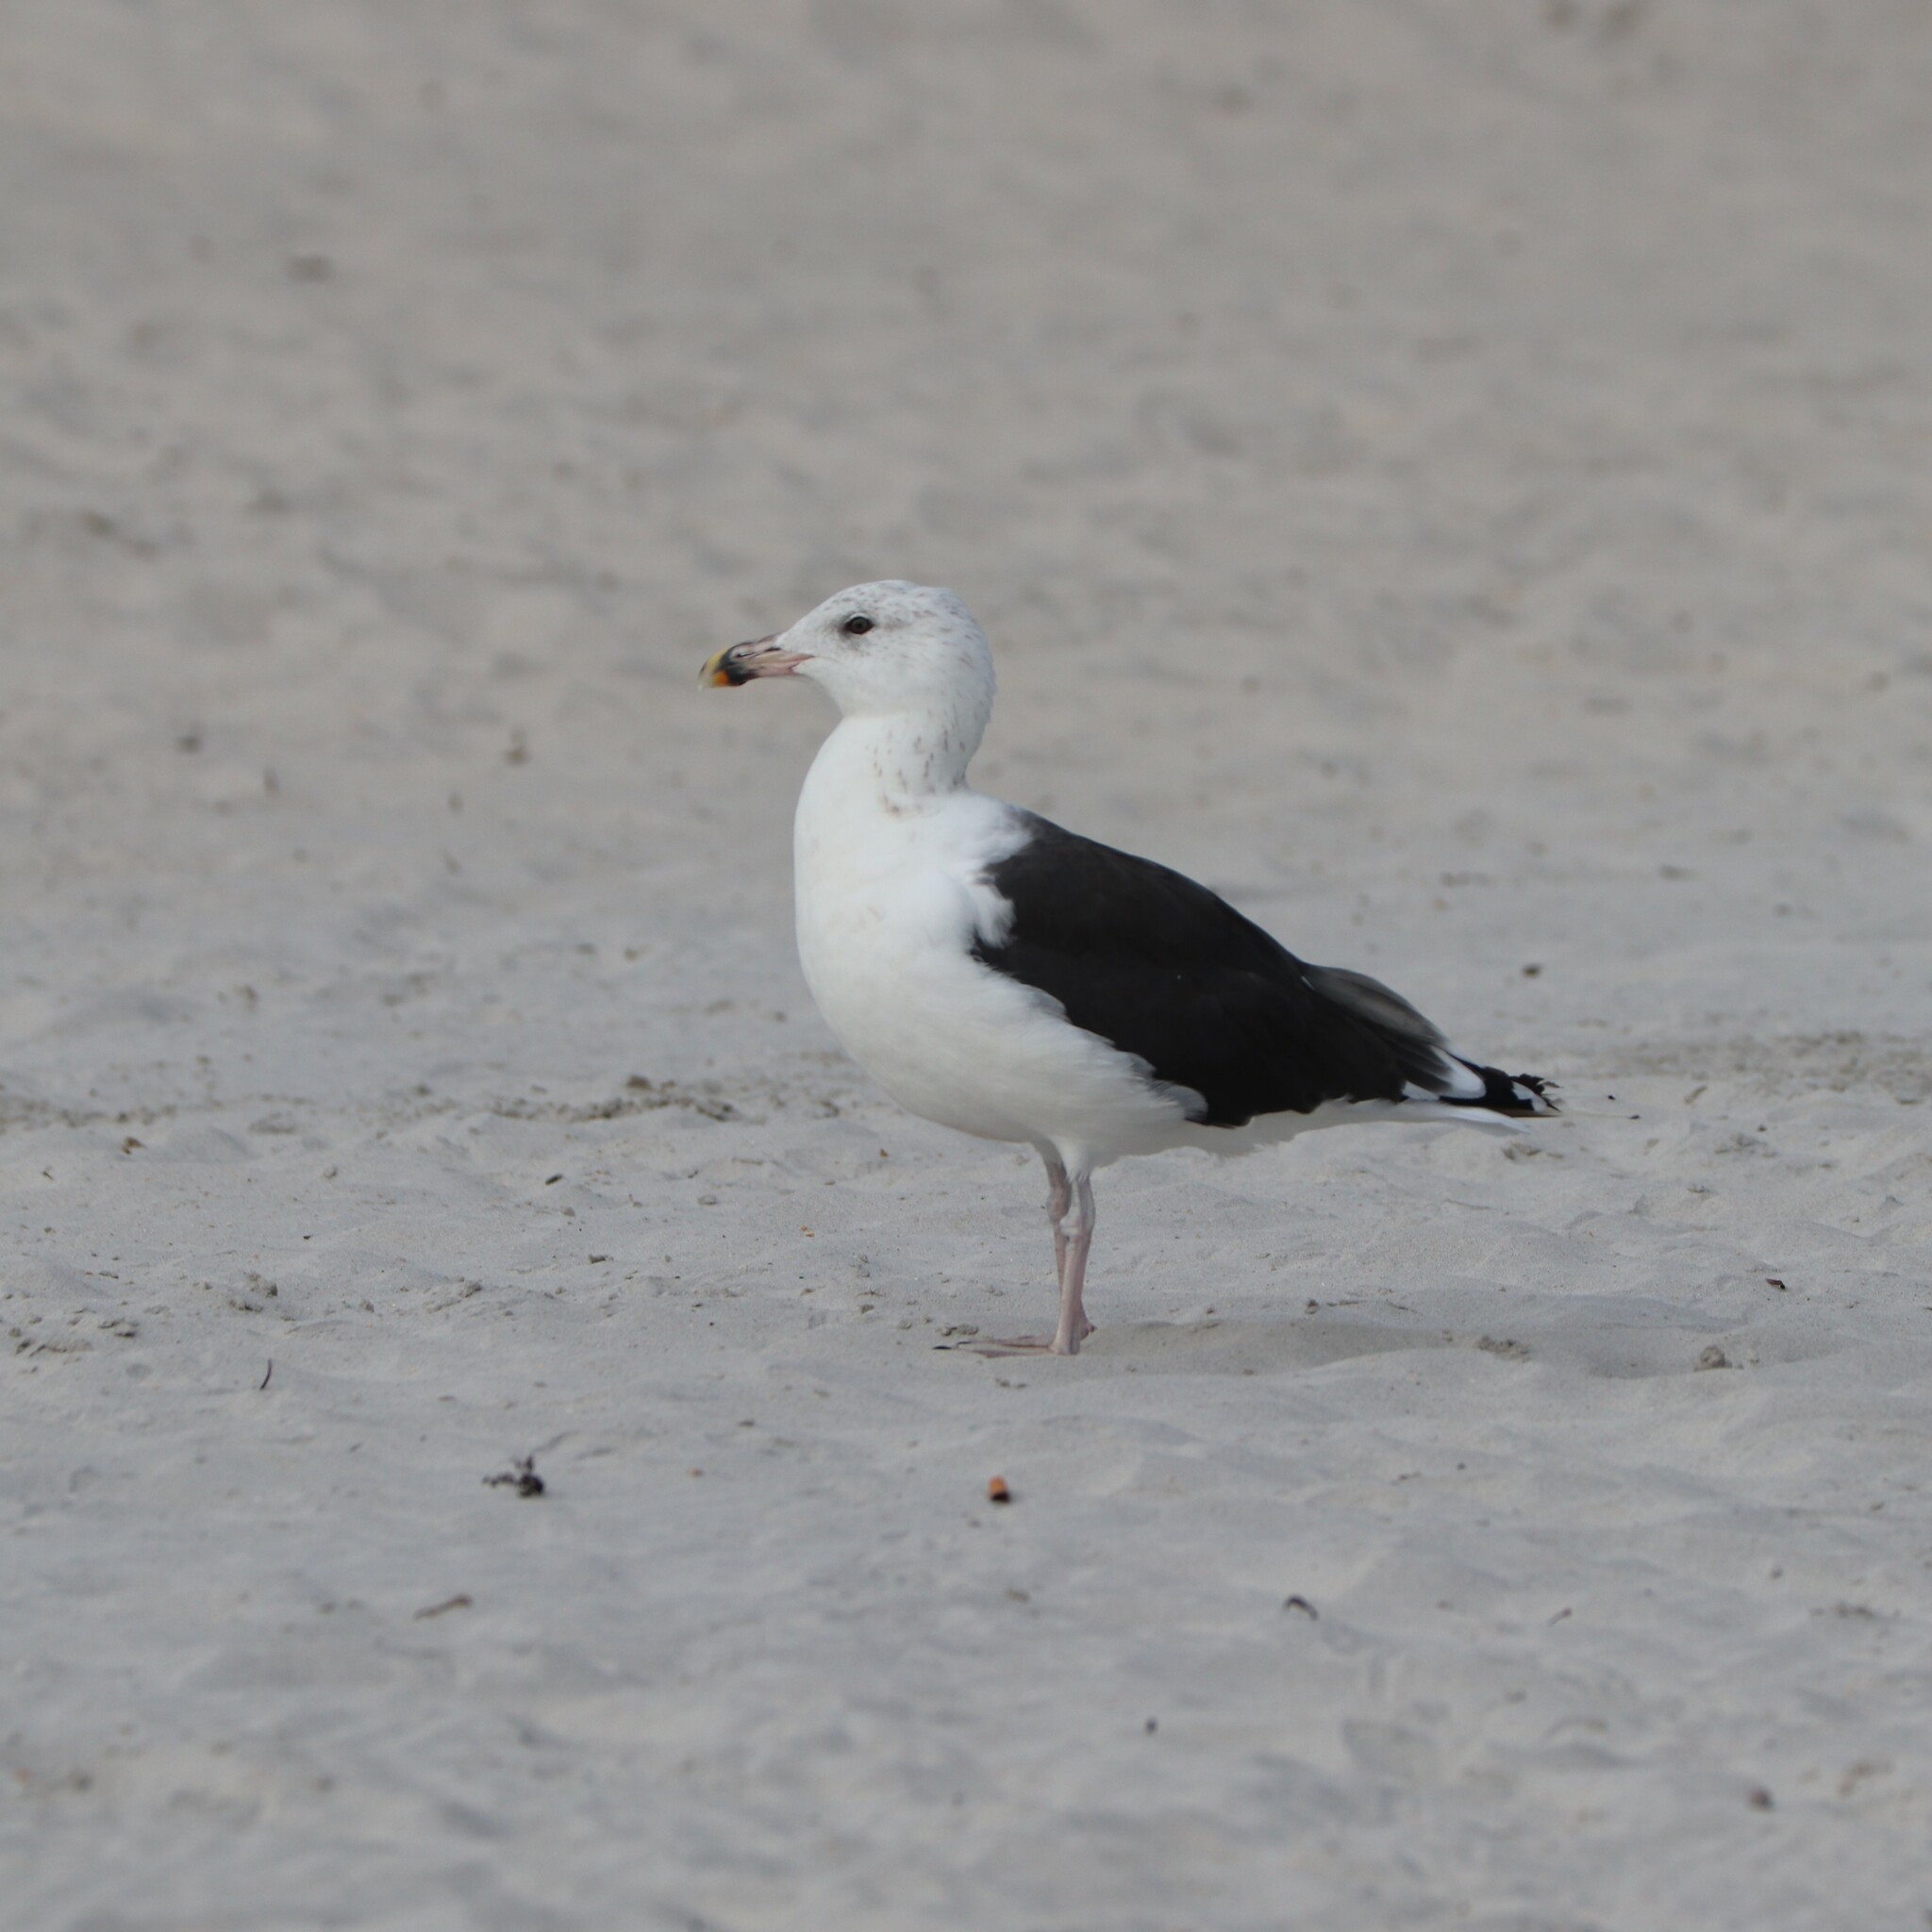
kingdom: Animalia
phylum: Chordata
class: Aves
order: Charadriiformes
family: Laridae
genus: Larus
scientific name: Larus marinus
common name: Great black-backed gull
